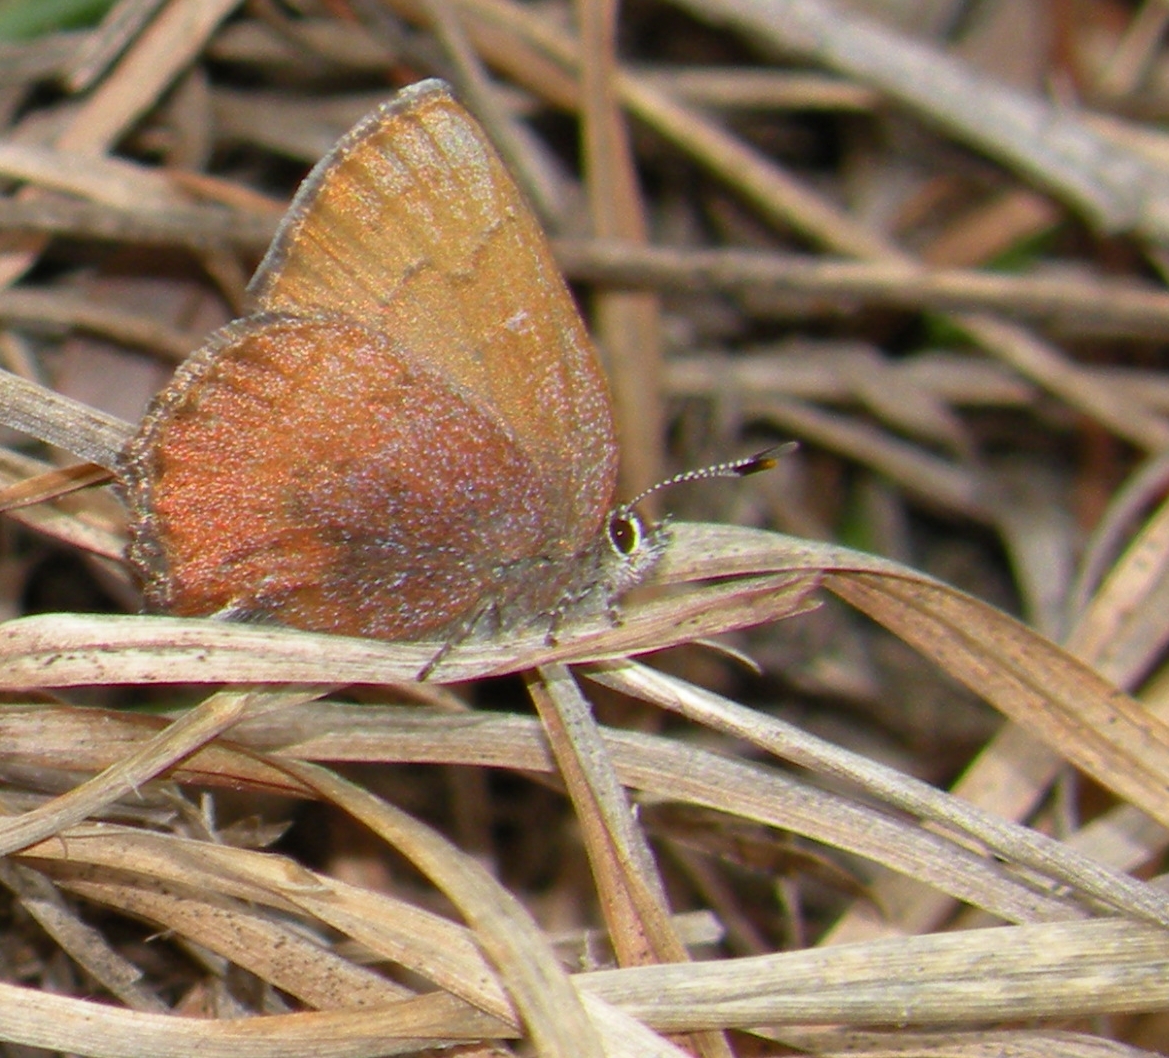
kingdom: Animalia
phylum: Arthropoda
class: Insecta
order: Lepidoptera
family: Lycaenidae
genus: Incisalia
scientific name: Incisalia irioides
